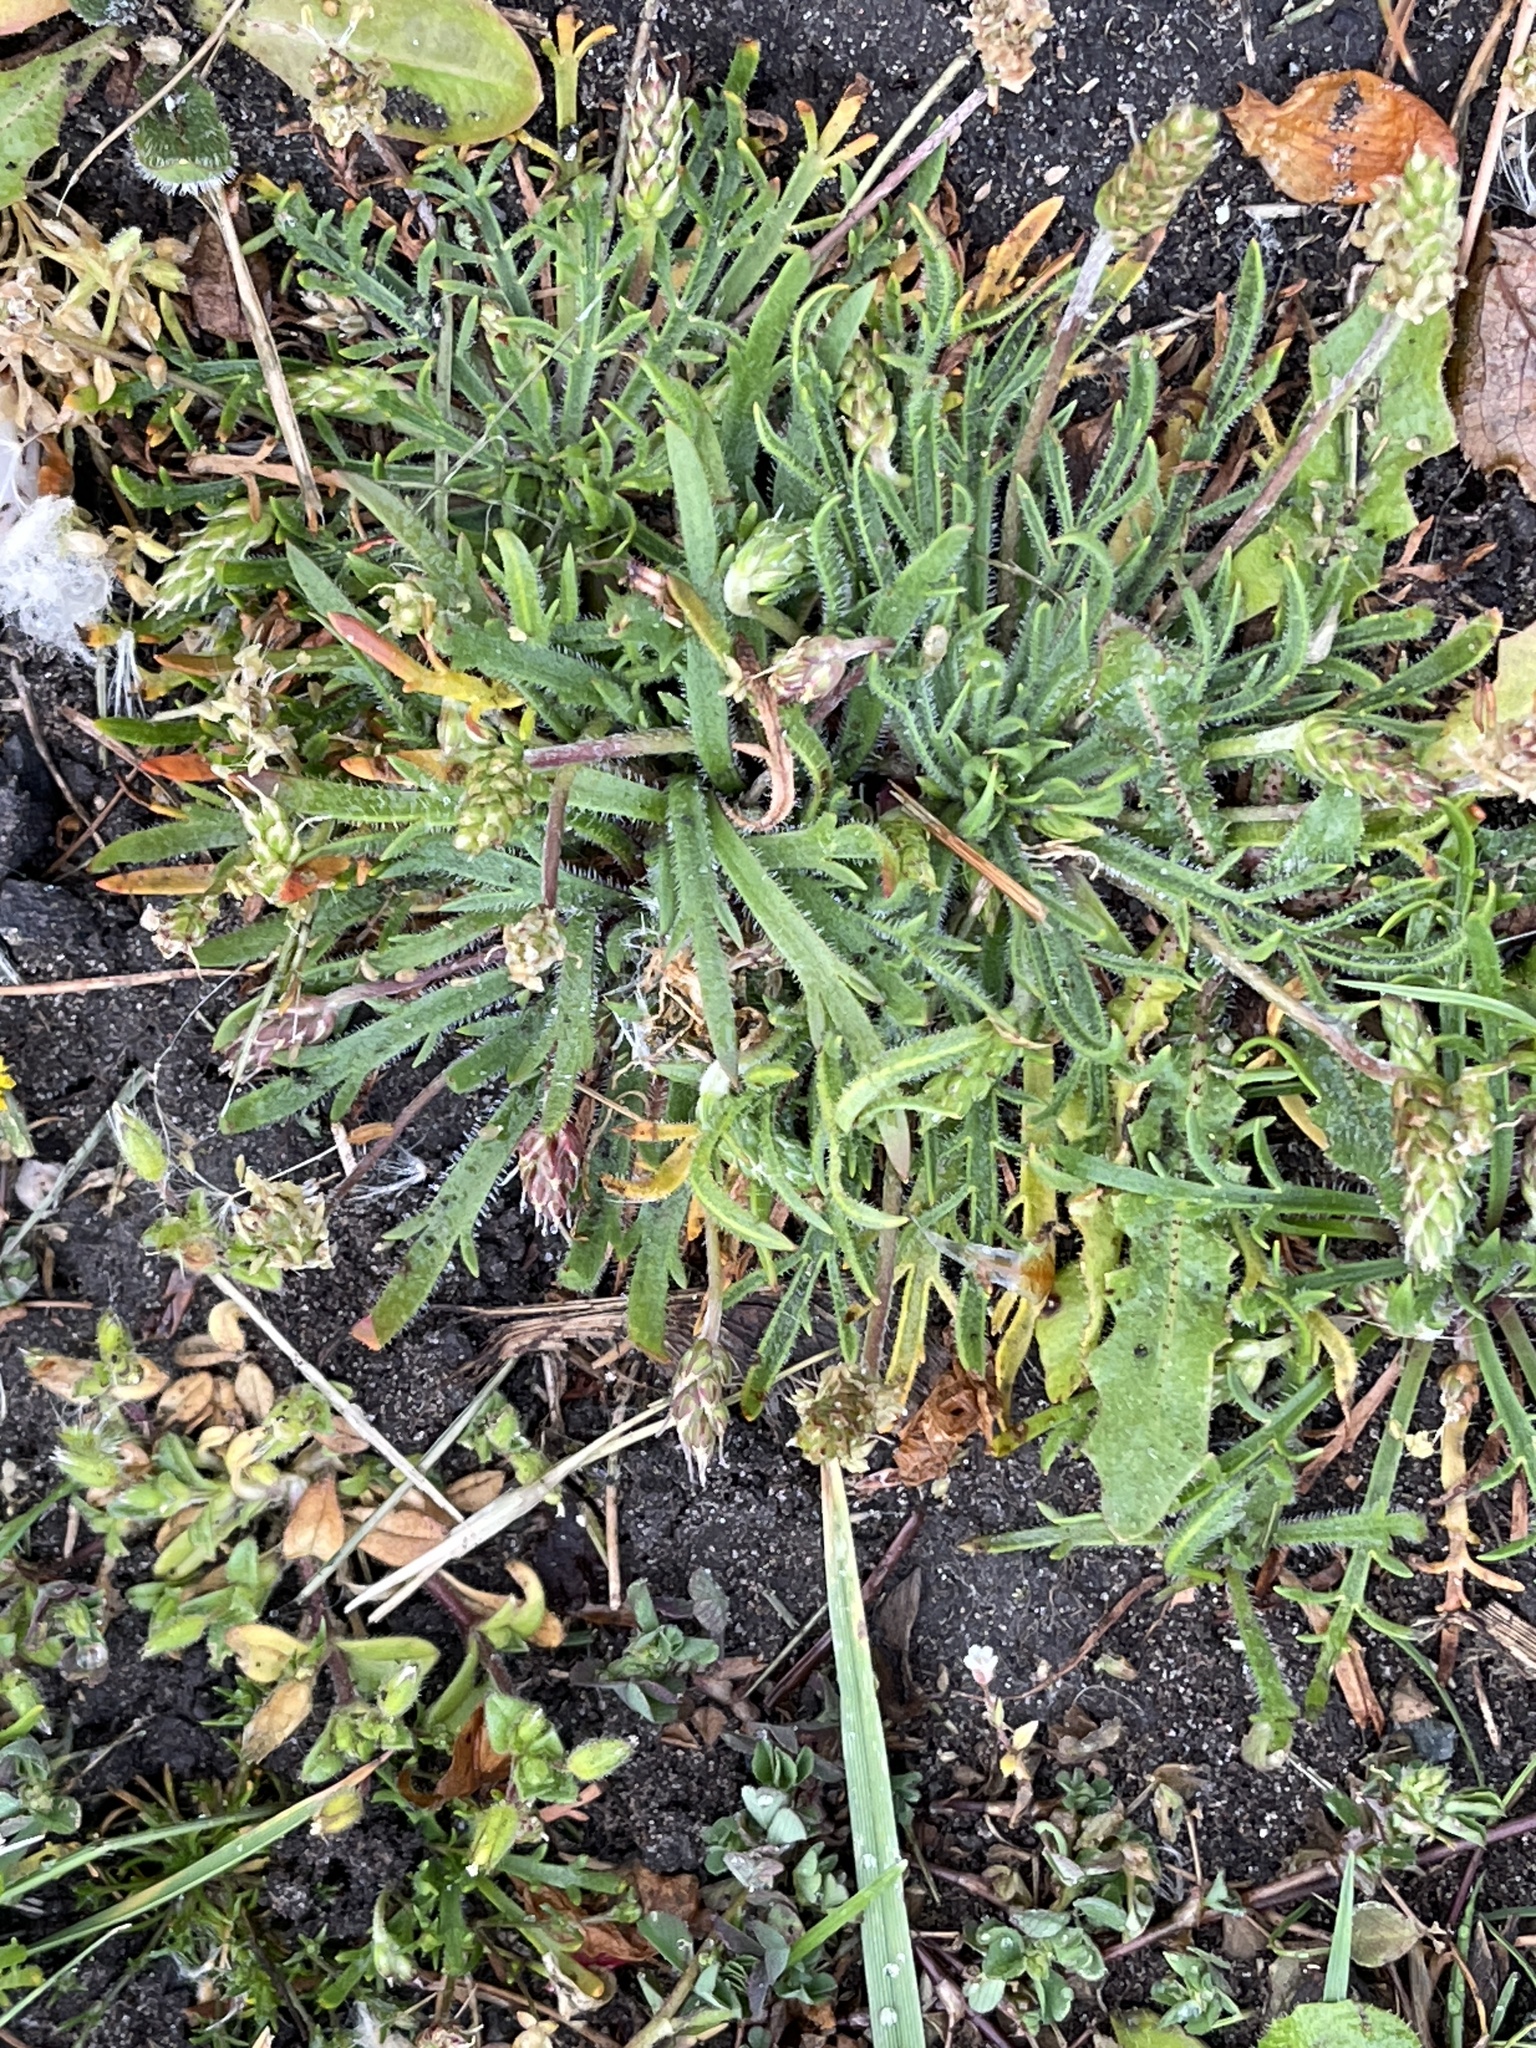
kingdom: Plantae
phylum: Tracheophyta
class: Magnoliopsida
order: Lamiales
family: Plantaginaceae
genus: Plantago
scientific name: Plantago coronopus
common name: Buck's-horn plantain
